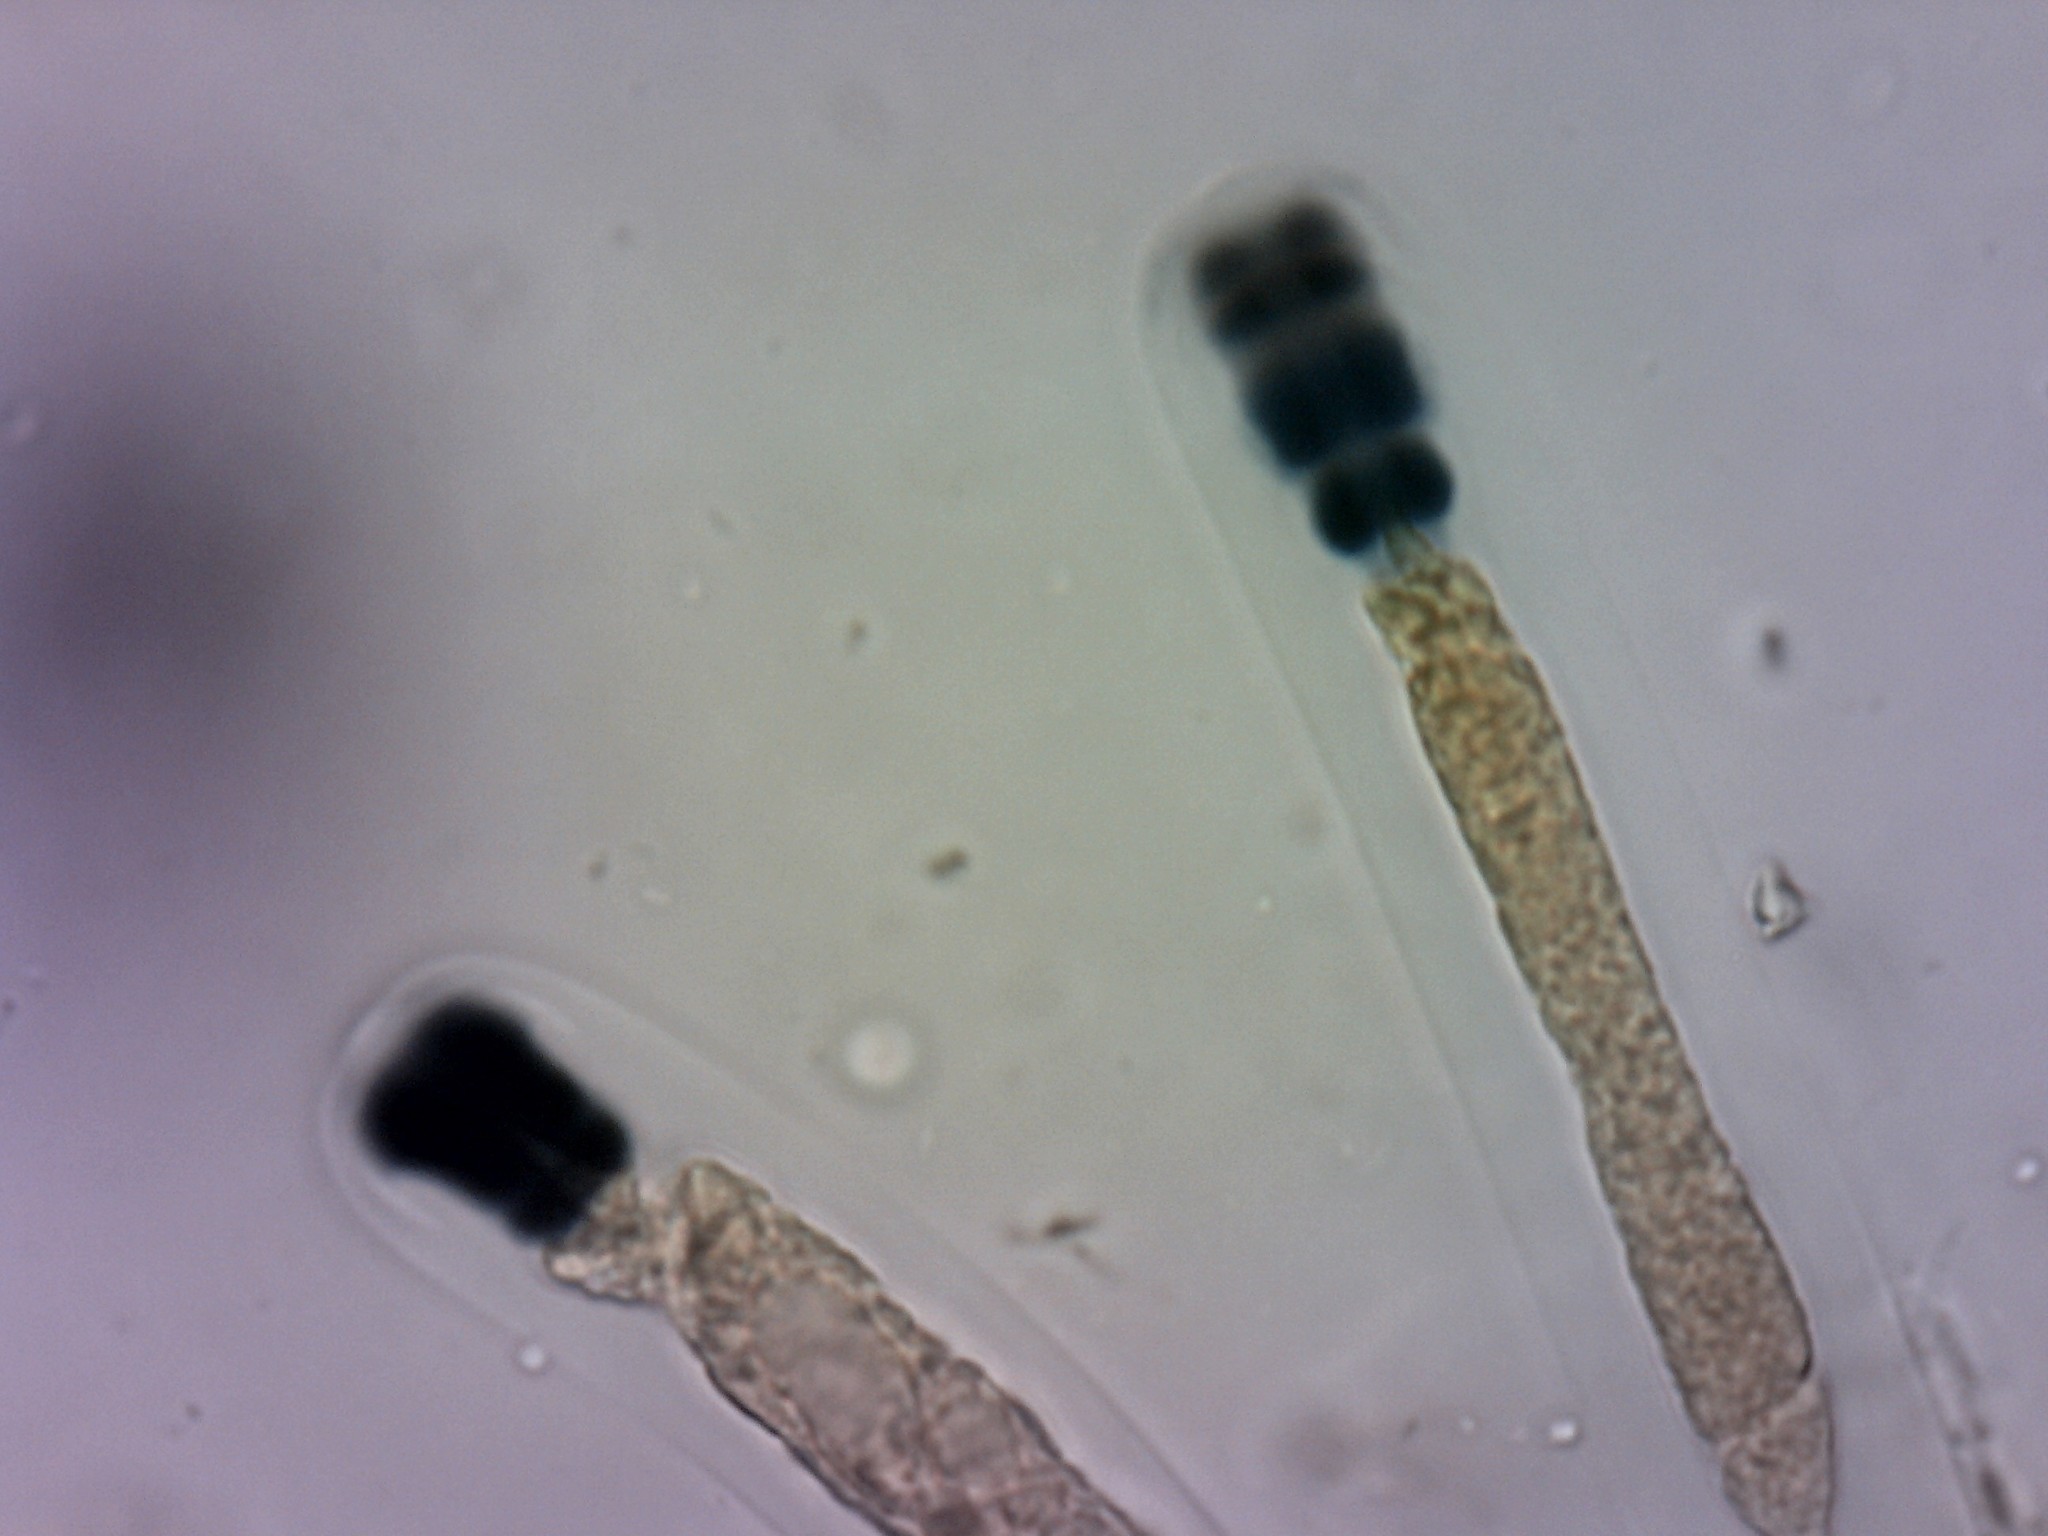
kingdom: Fungi
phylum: Ascomycota
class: Sordariomycetes
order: Xylariales
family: Xylariaceae
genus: Stilbohypoxylon
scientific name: Stilbohypoxylon quisquiliarum
